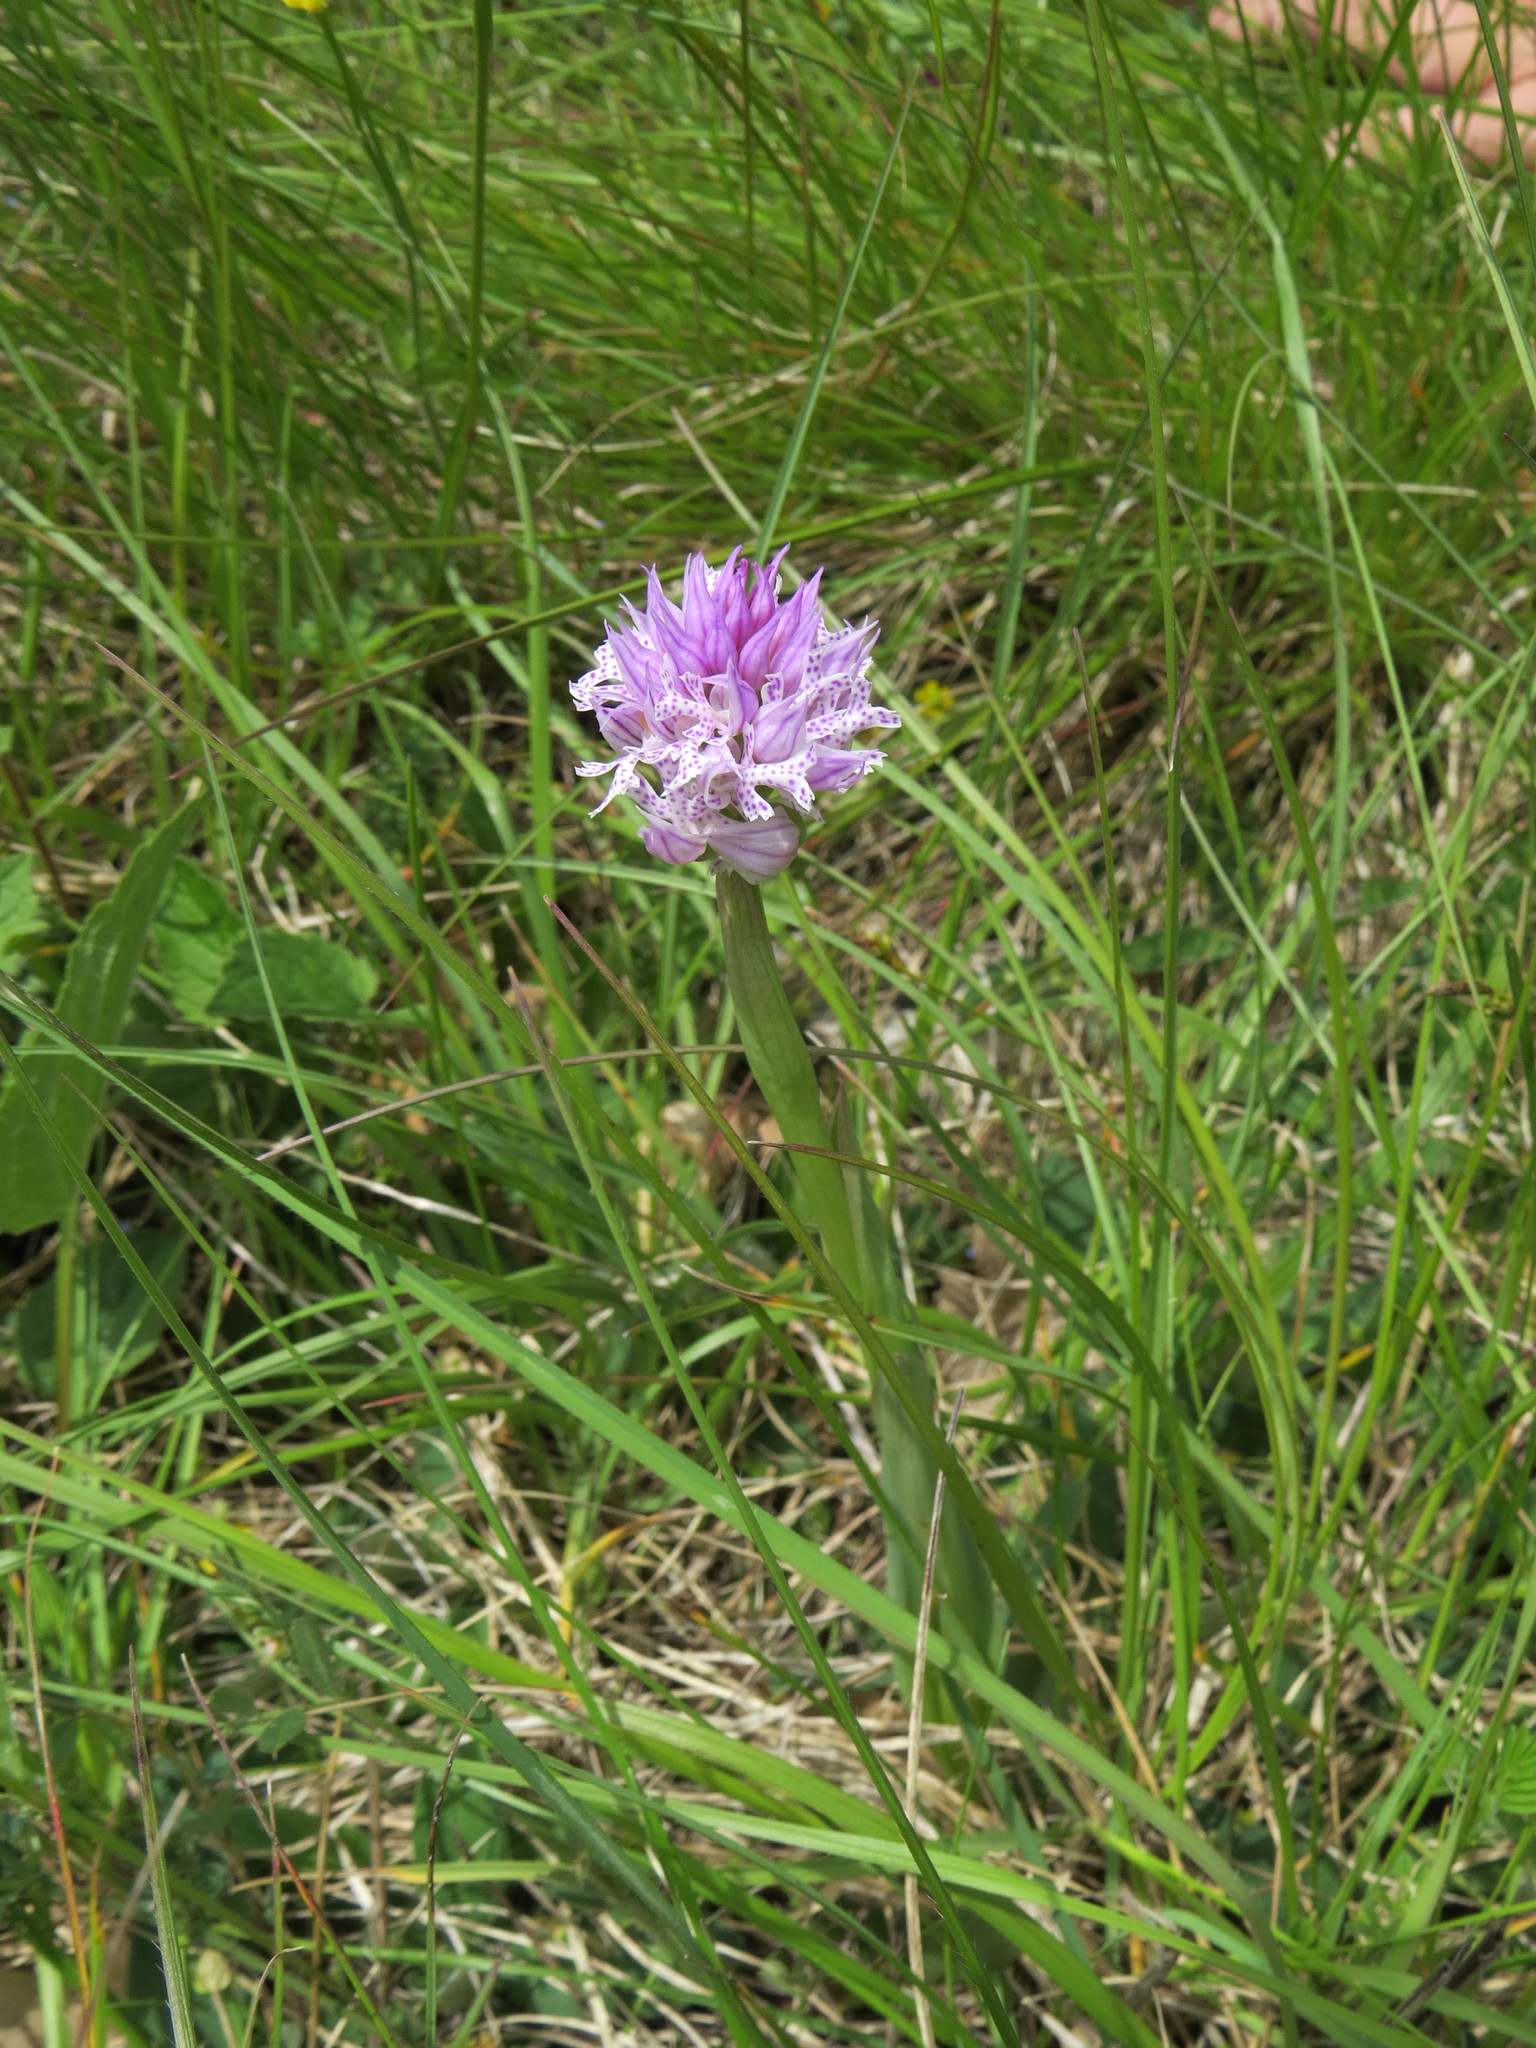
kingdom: Plantae
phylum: Tracheophyta
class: Liliopsida
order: Asparagales
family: Orchidaceae
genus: Neotinea
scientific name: Neotinea tridentata
